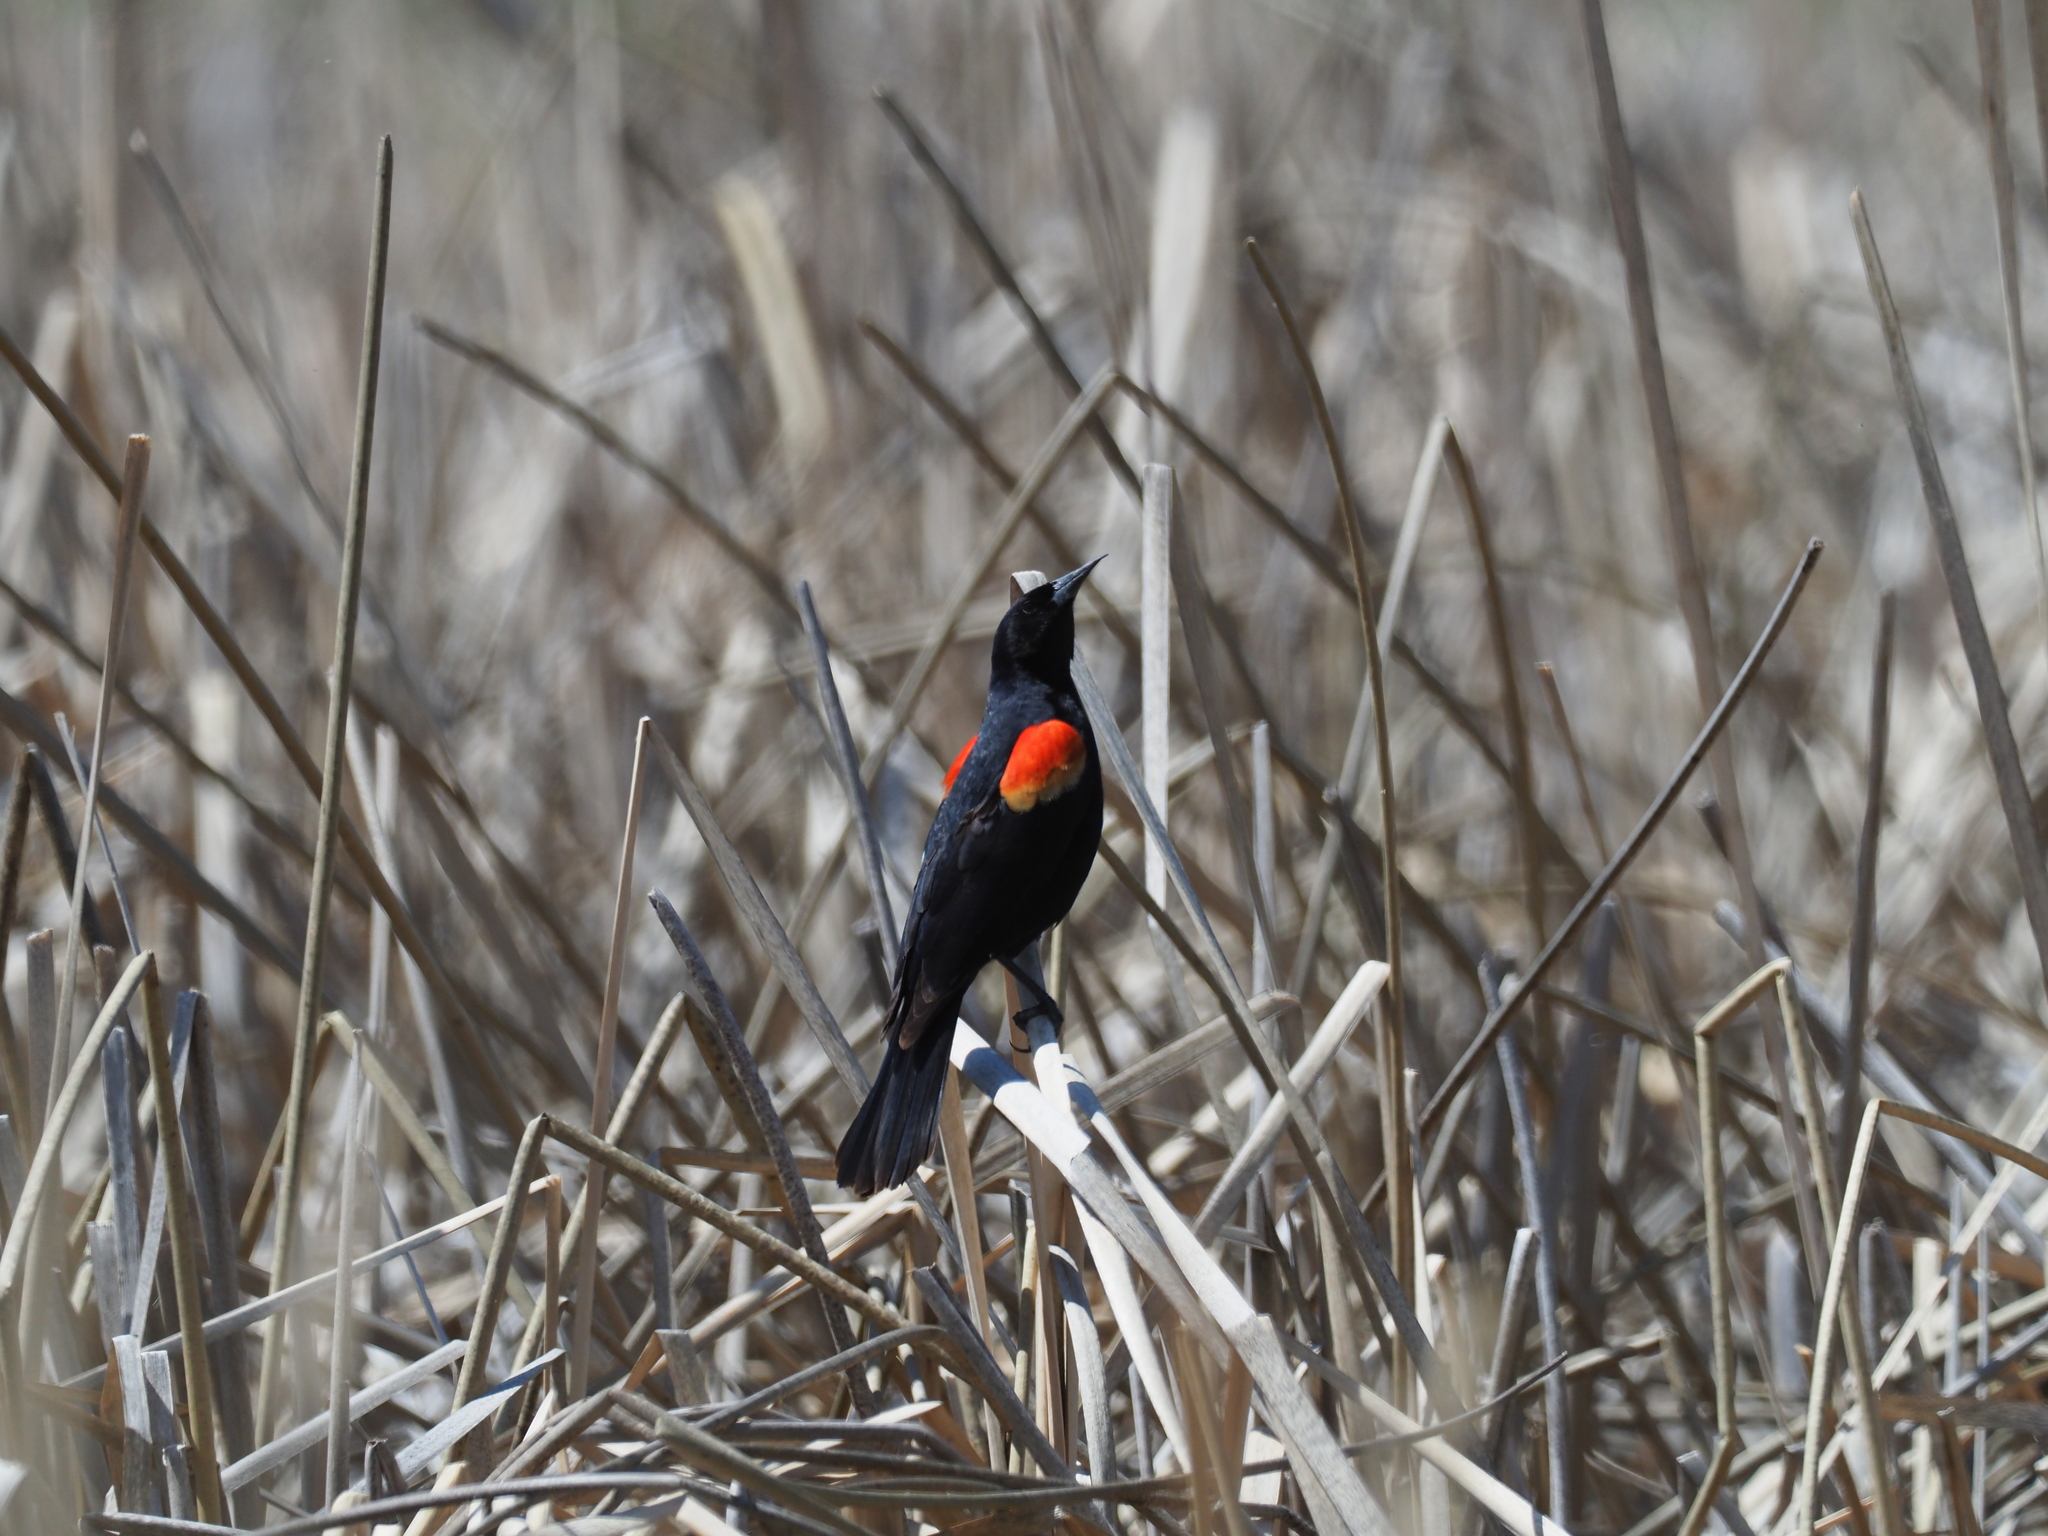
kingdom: Animalia
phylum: Chordata
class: Aves
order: Passeriformes
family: Icteridae
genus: Agelaius
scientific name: Agelaius phoeniceus
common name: Red-winged blackbird
